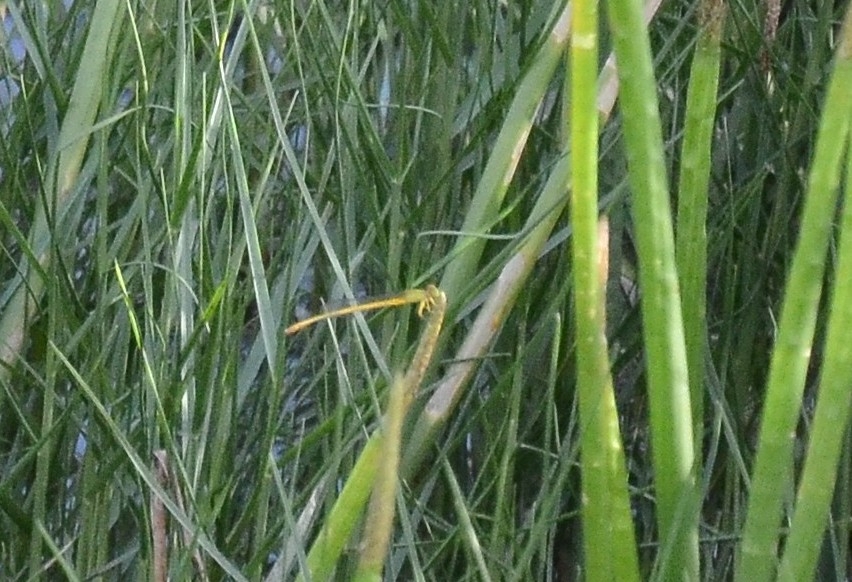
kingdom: Animalia
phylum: Arthropoda
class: Insecta
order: Odonata
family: Coenagrionidae
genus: Ceriagrion
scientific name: Ceriagrion coromandelianum
